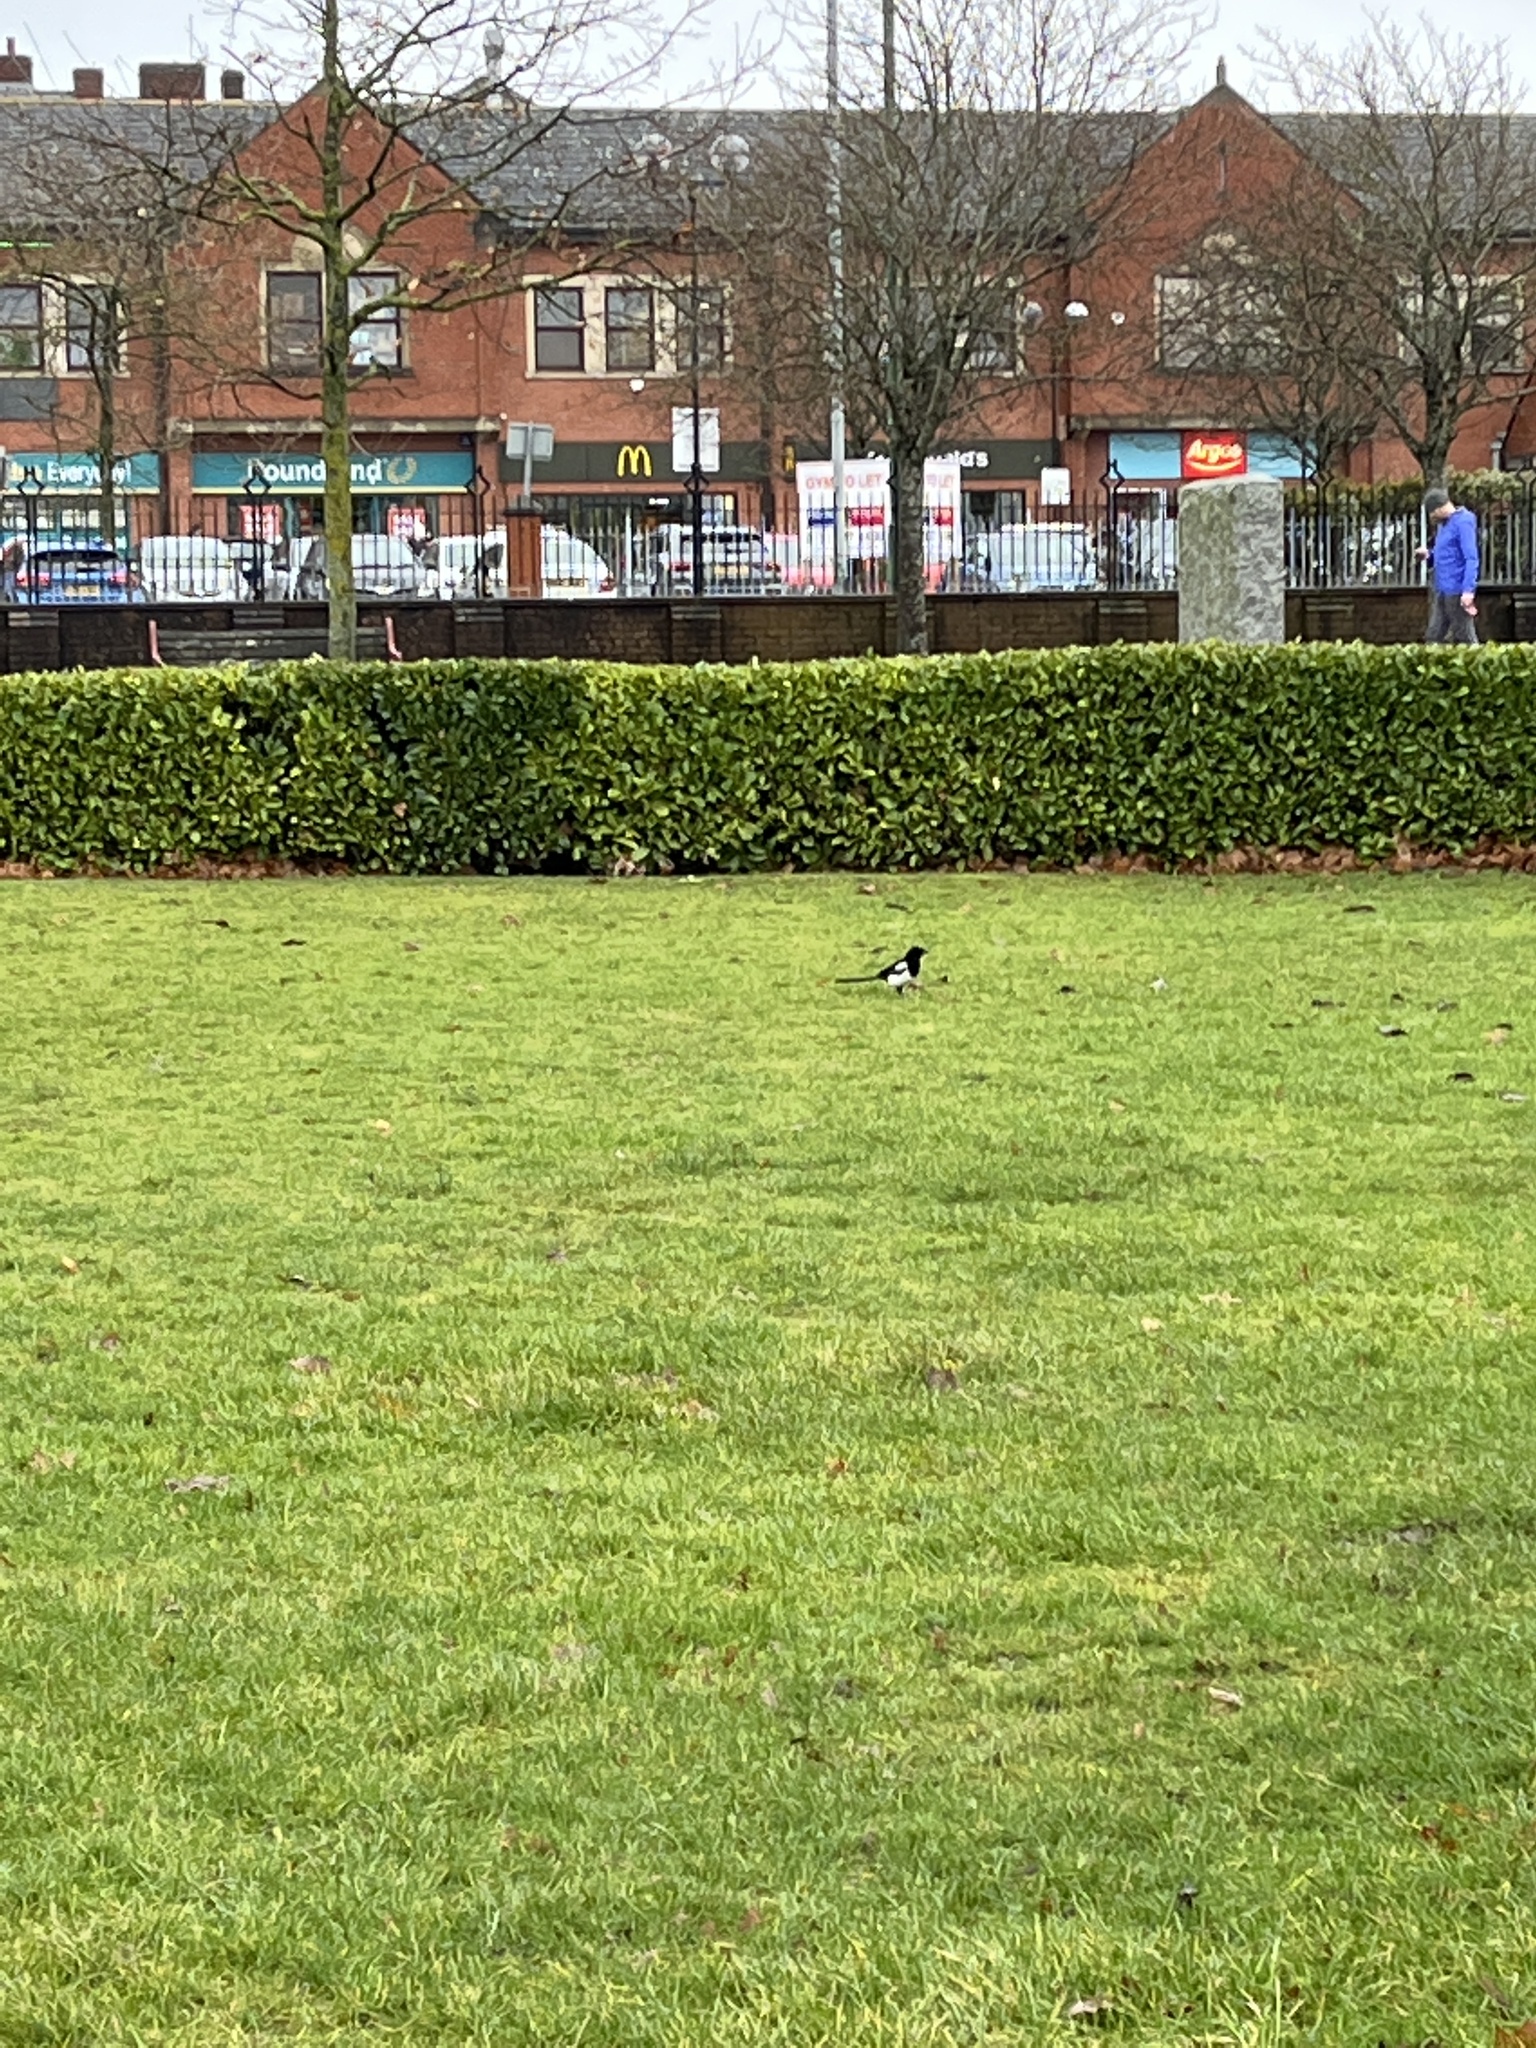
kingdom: Animalia
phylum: Chordata
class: Aves
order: Passeriformes
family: Corvidae
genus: Pica
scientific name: Pica pica
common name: Eurasian magpie
